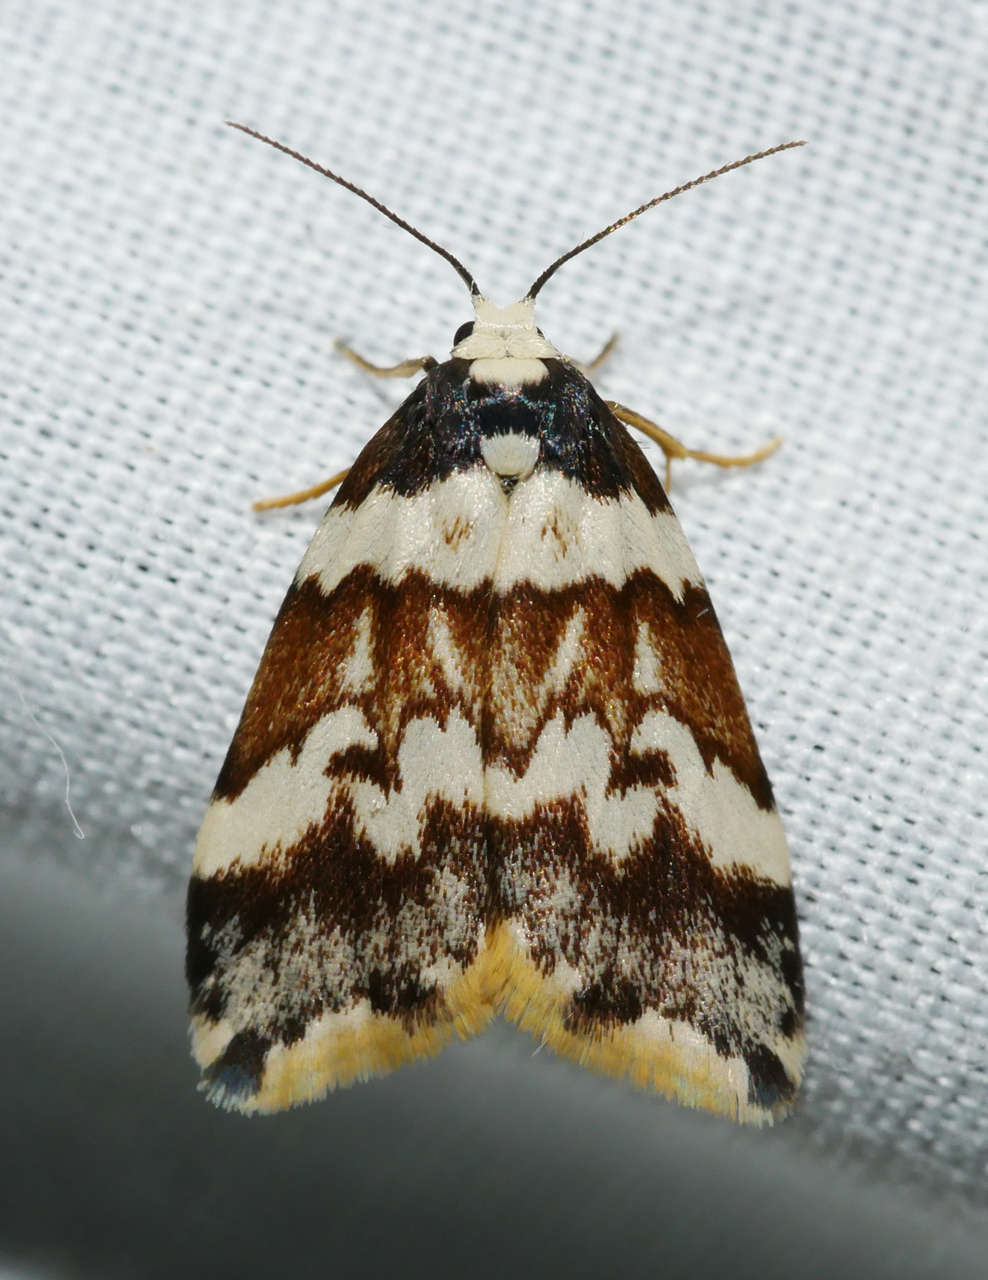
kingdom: Animalia
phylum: Arthropoda
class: Insecta
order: Lepidoptera
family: Erebidae
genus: Halone
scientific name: Halone sejuncta
